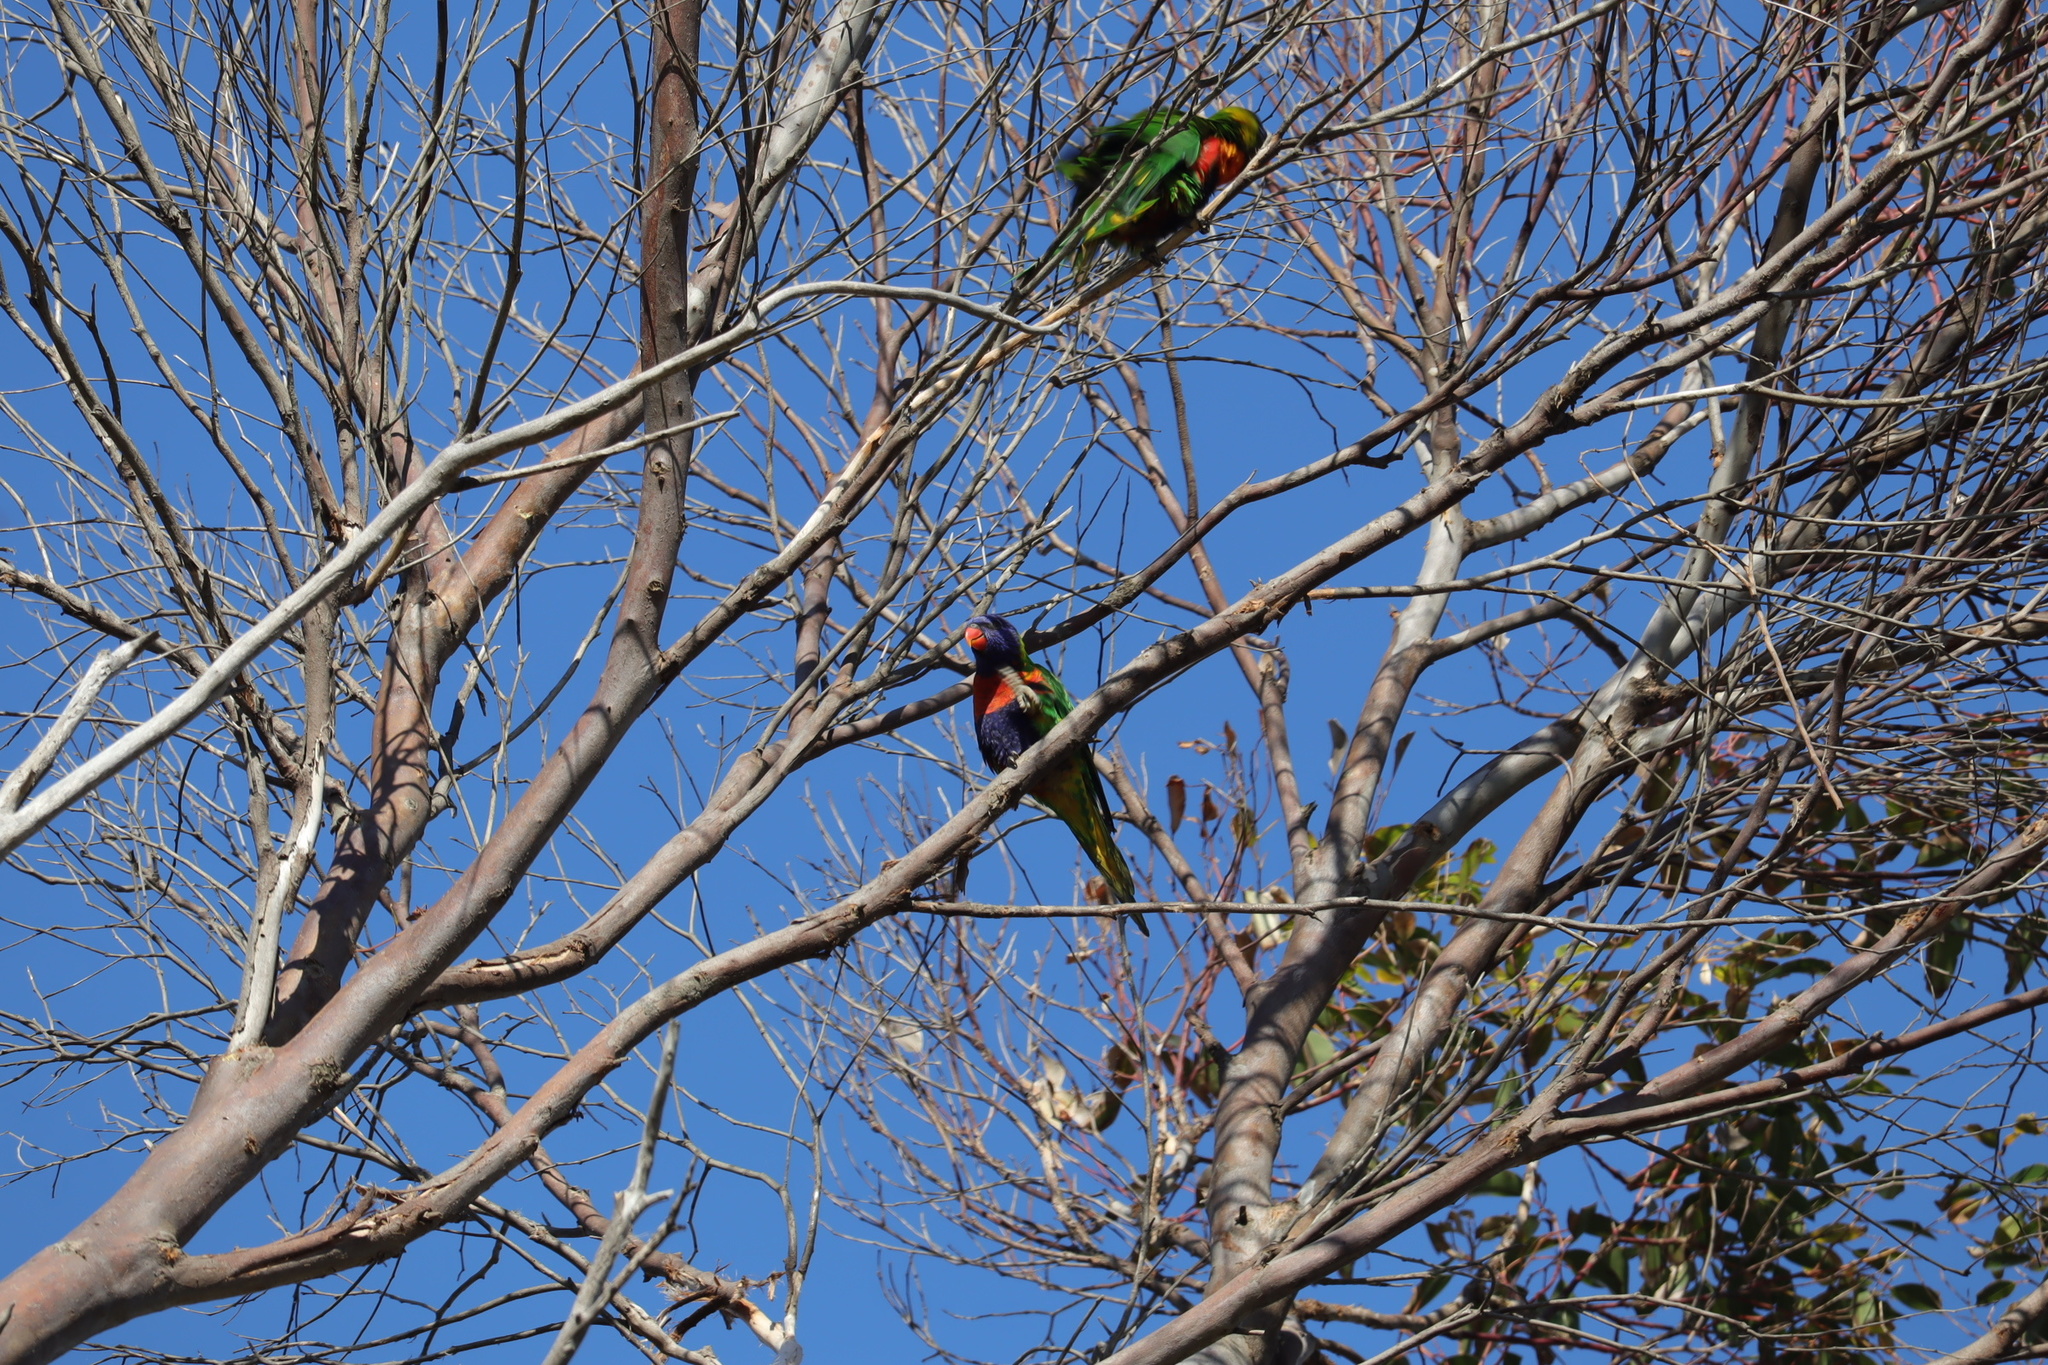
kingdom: Animalia
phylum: Chordata
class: Aves
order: Psittaciformes
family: Psittacidae
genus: Trichoglossus
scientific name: Trichoglossus haematodus
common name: Coconut lorikeet
